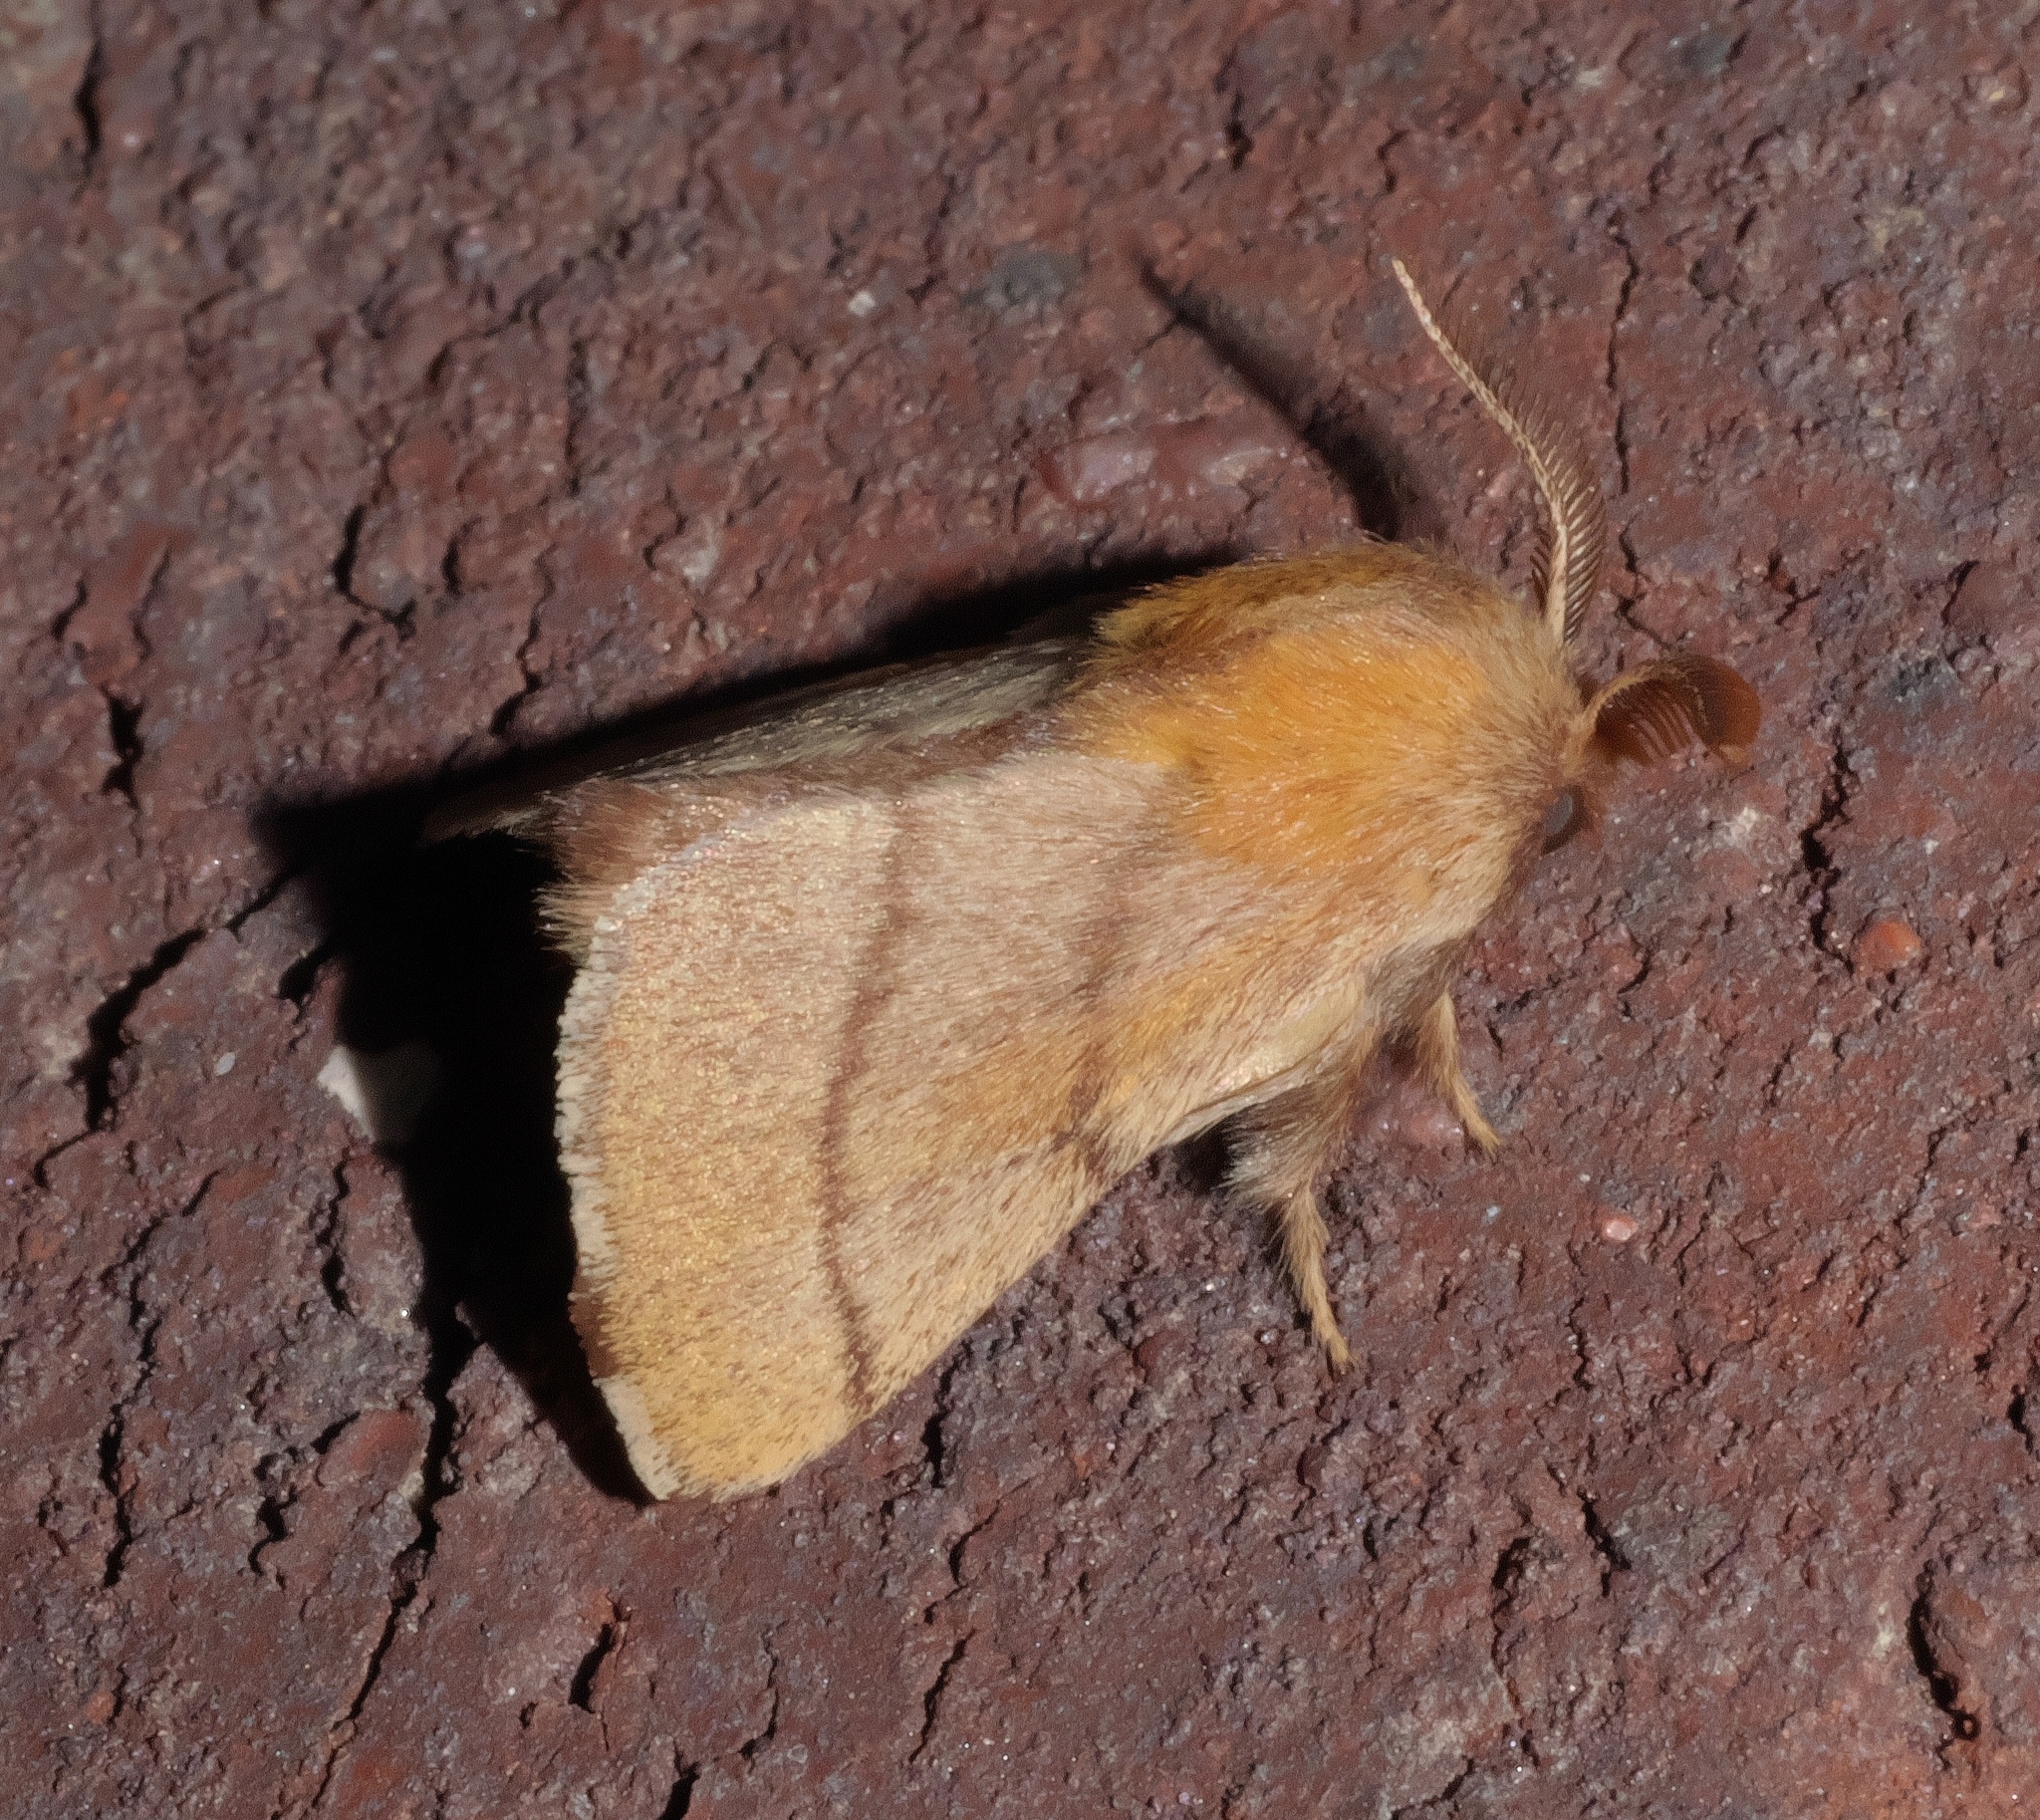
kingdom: Animalia
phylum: Arthropoda
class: Insecta
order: Lepidoptera
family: Lasiocampidae
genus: Malacosoma
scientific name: Malacosoma disstria
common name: Forest tent caterpillar
